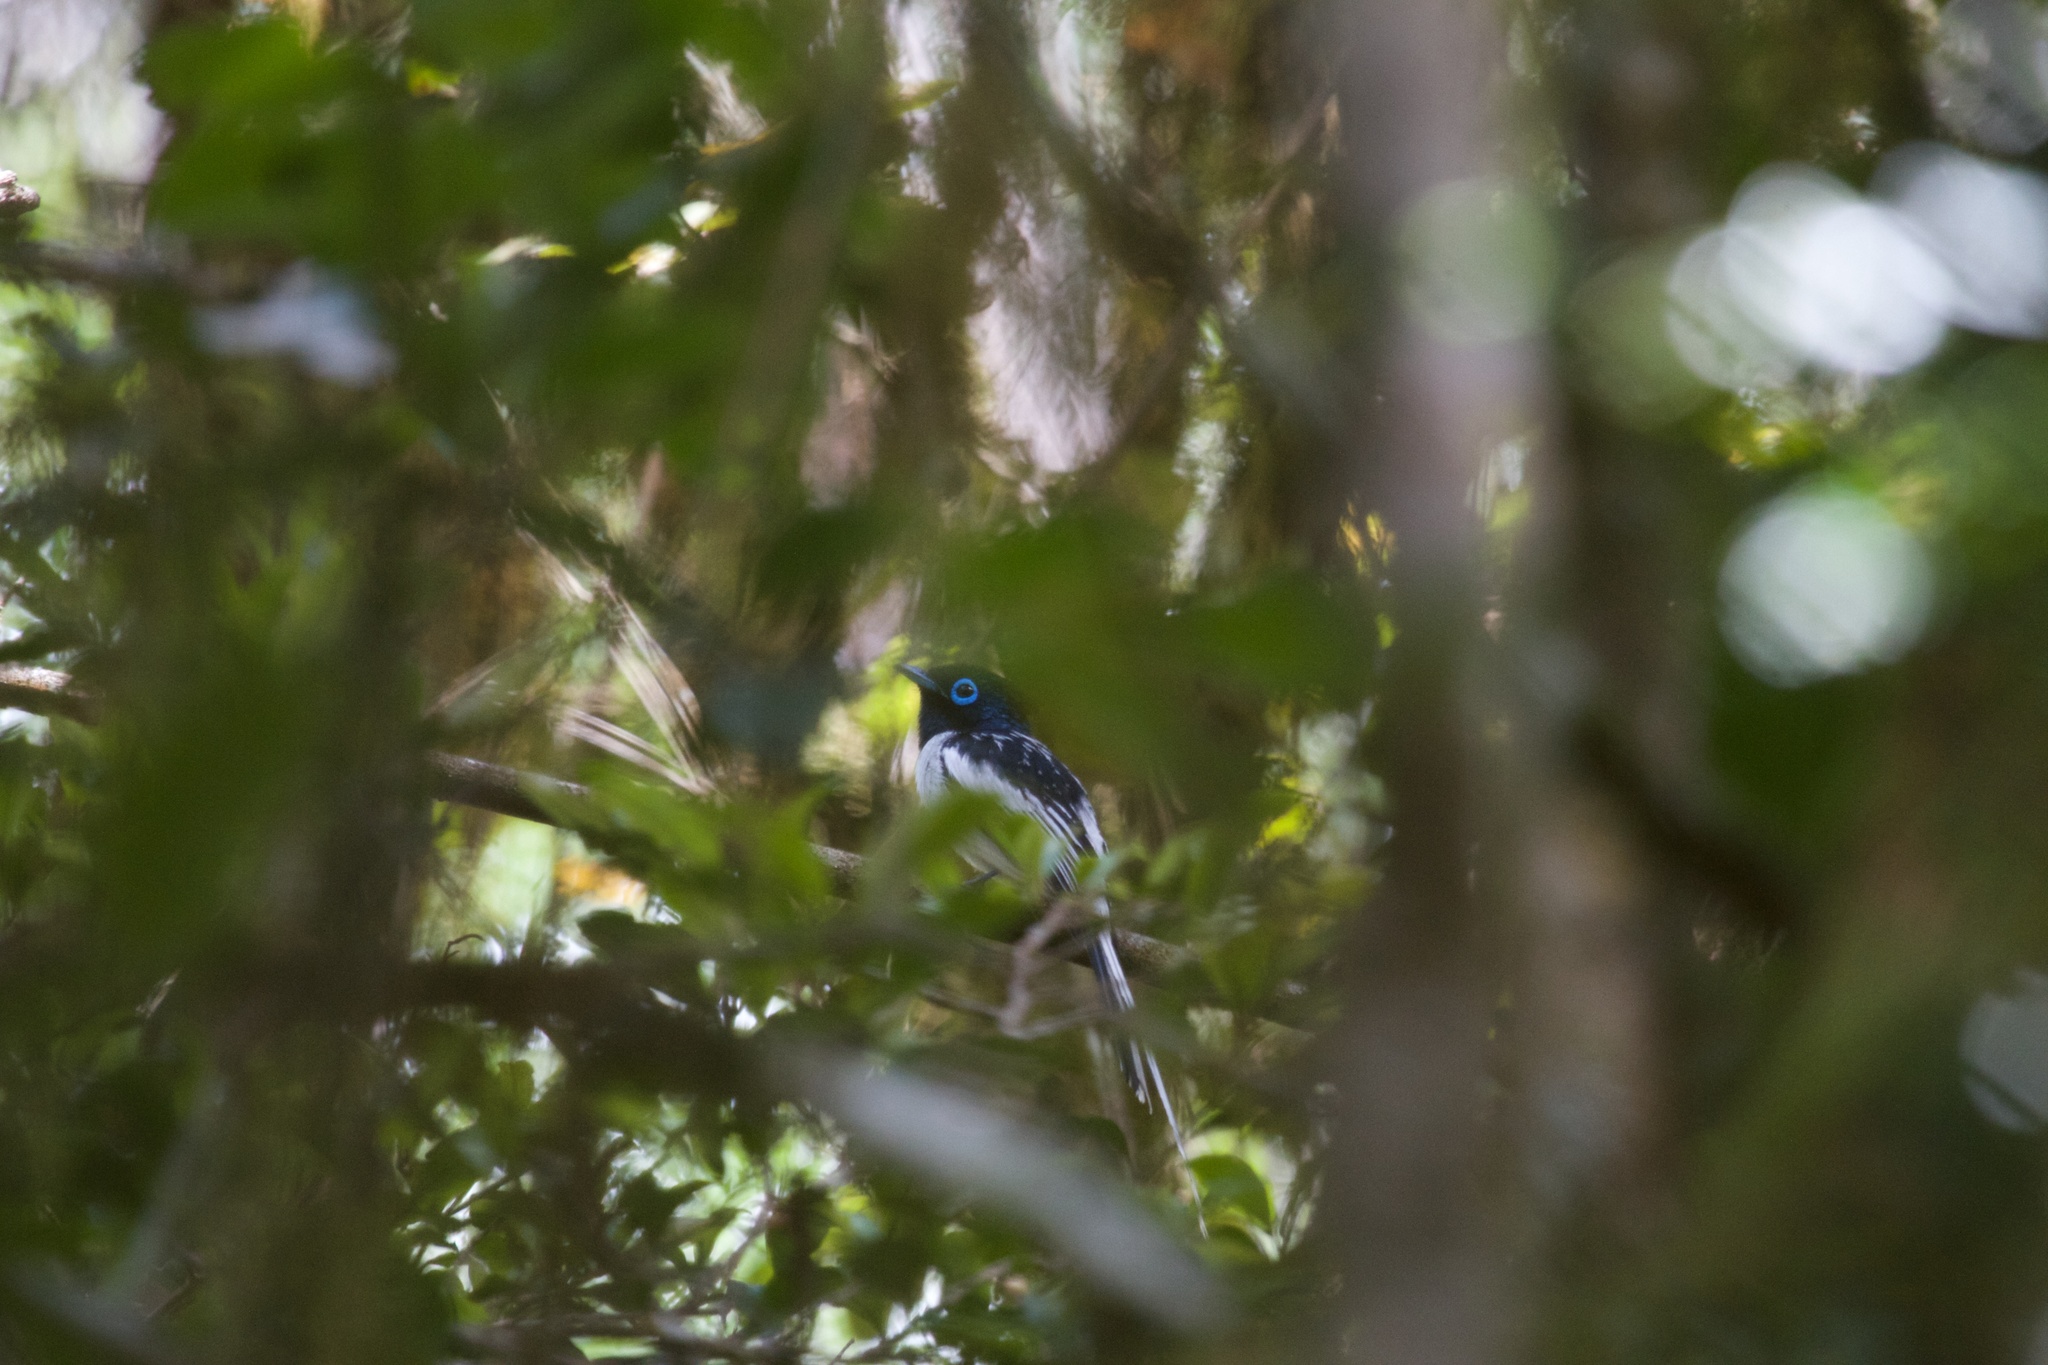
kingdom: Animalia
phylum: Chordata
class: Aves
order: Passeriformes
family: Monarchidae
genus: Terpsiphone
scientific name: Terpsiphone mutata
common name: Malagasy paradise flycatcher
